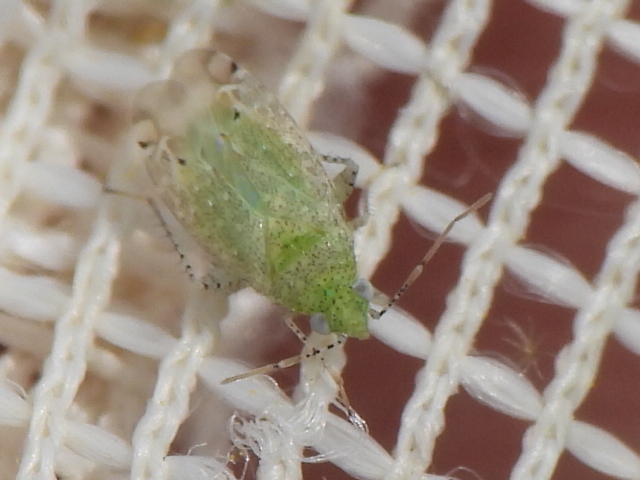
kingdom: Animalia
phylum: Arthropoda
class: Insecta
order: Hemiptera
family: Miridae
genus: Pseudatomoscelis
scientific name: Pseudatomoscelis seriatus
